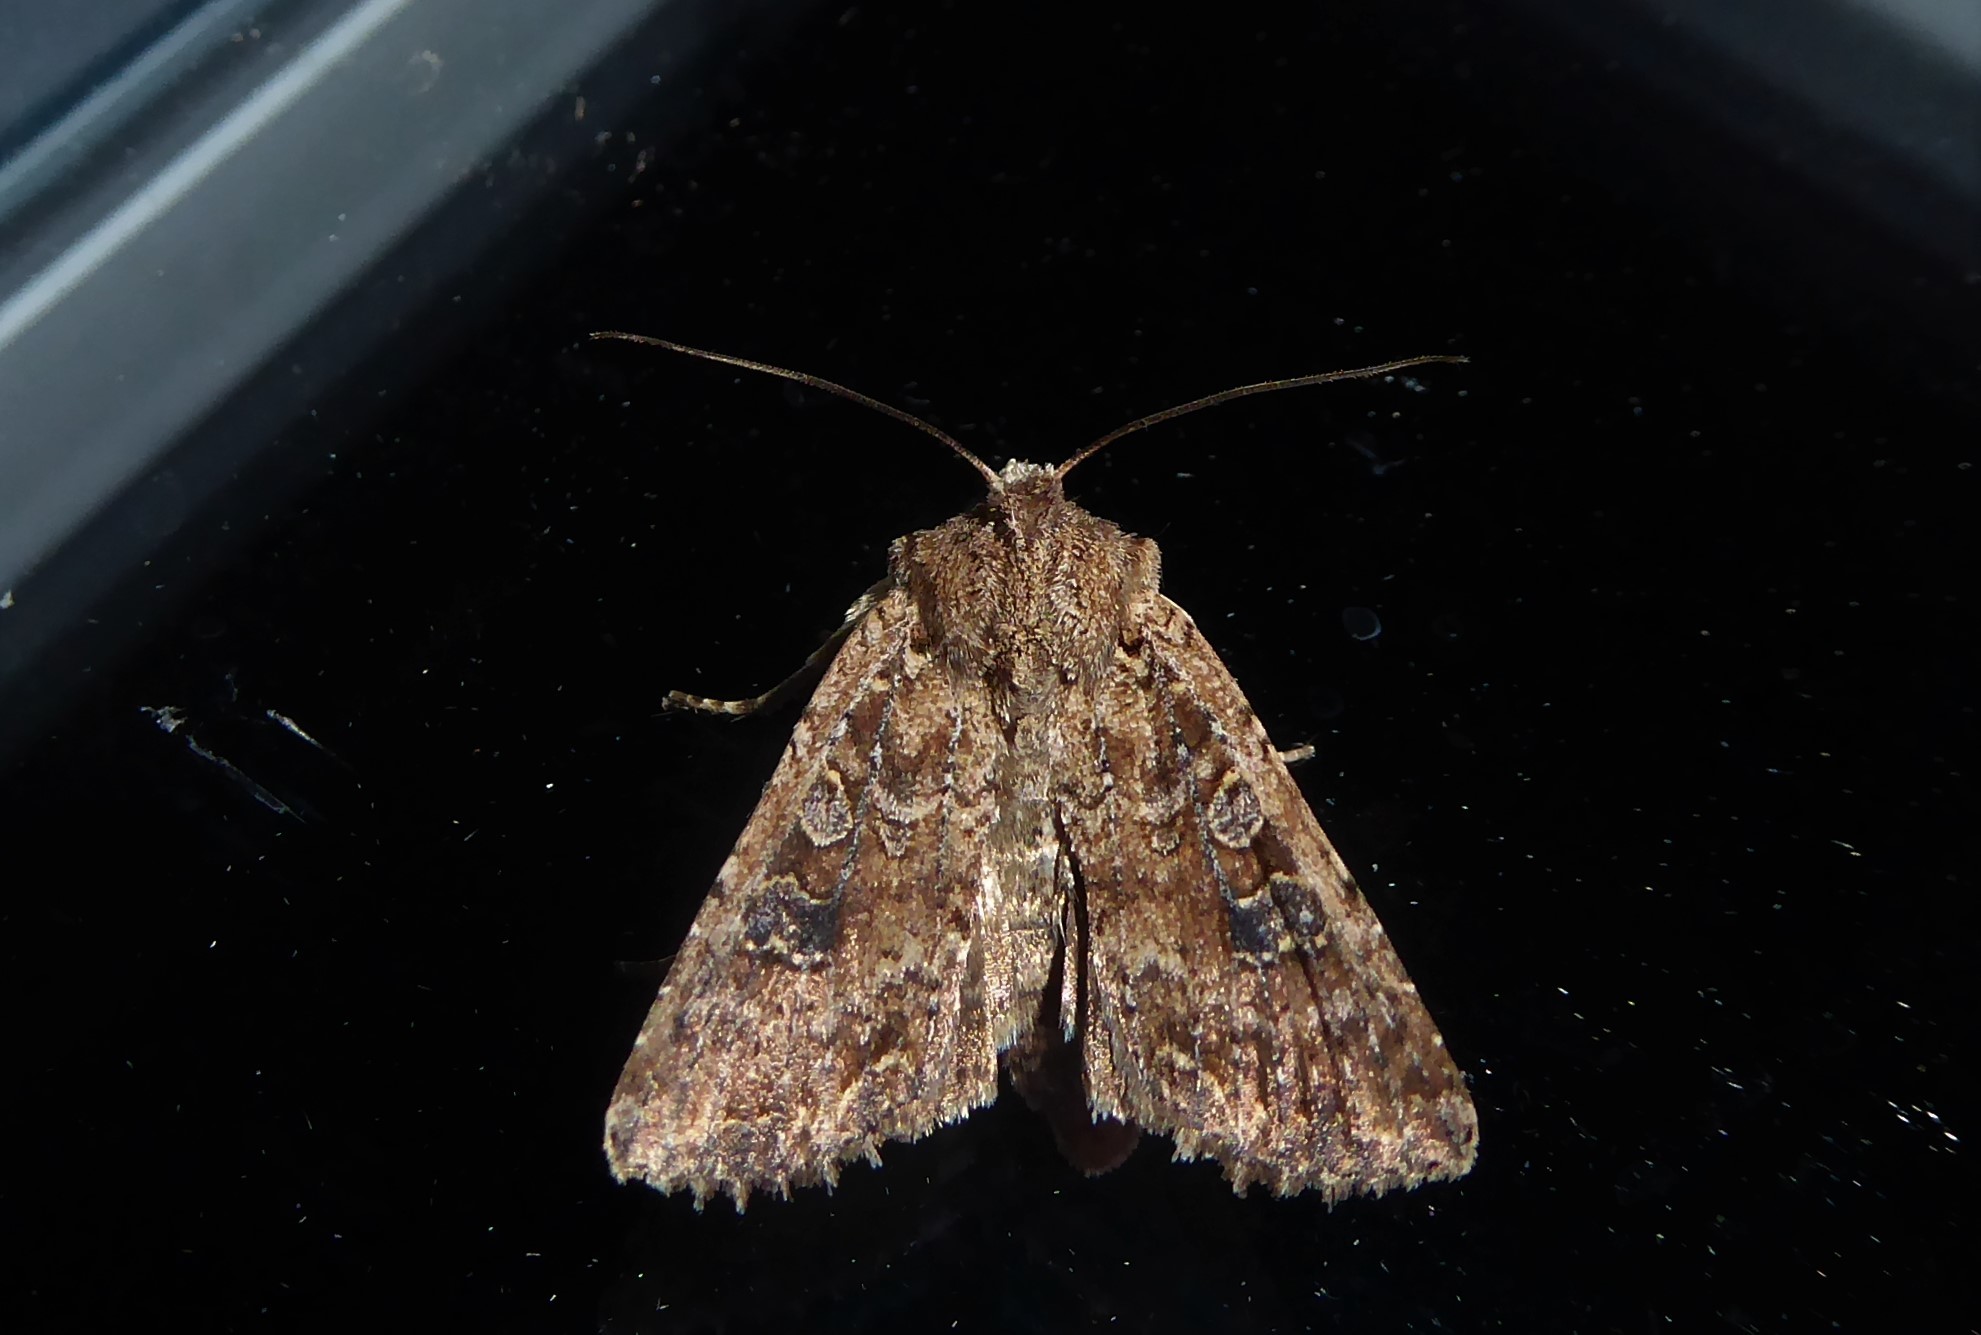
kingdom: Animalia
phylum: Arthropoda
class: Insecta
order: Lepidoptera
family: Noctuidae
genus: Ichneutica
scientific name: Ichneutica morosa
